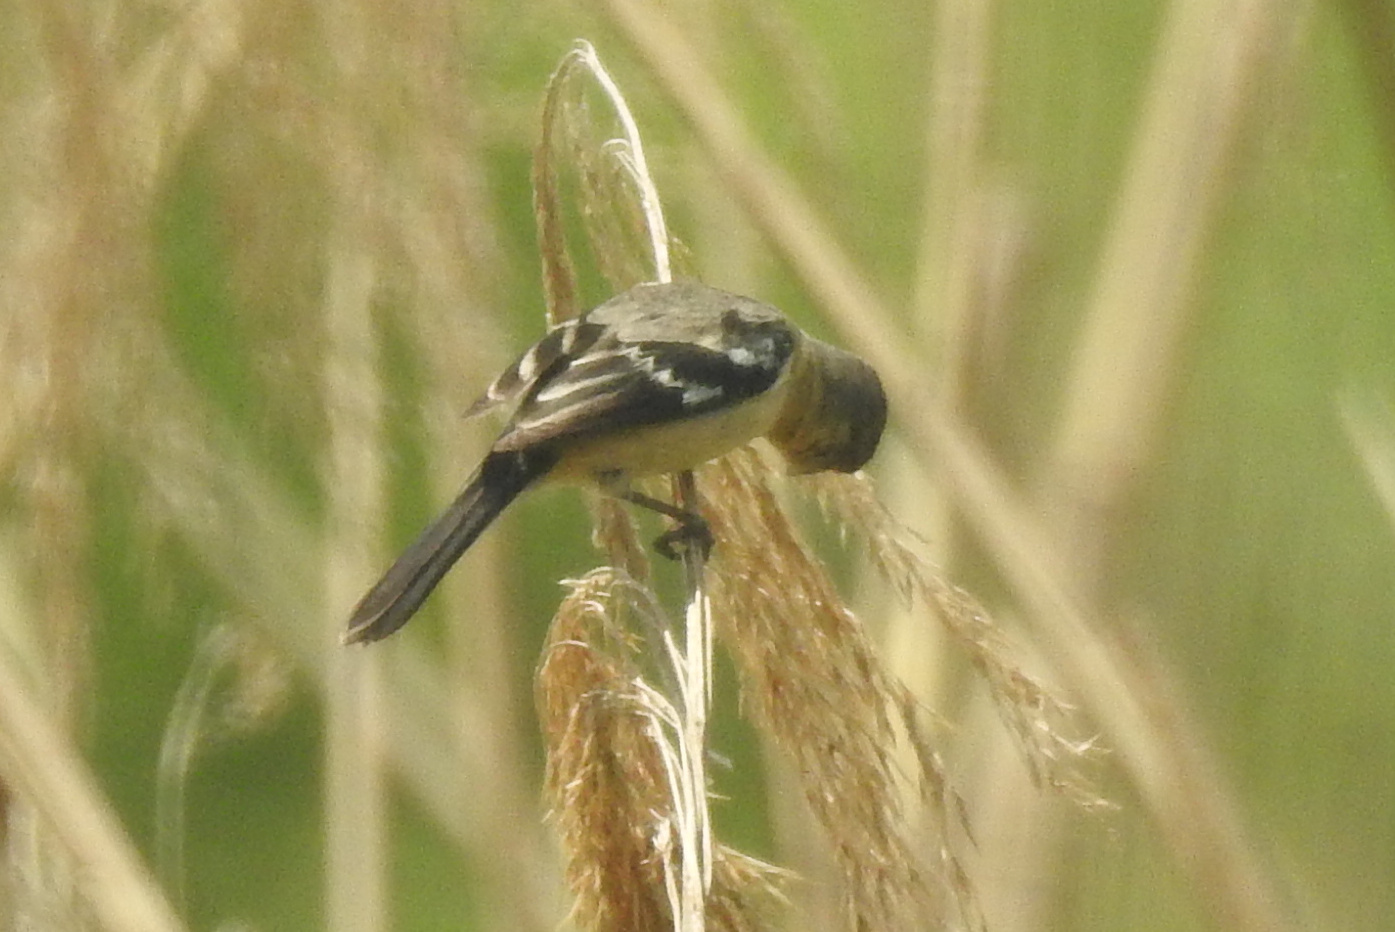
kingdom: Animalia
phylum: Chordata
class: Aves
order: Passeriformes
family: Thraupidae
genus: Sporophila
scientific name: Sporophila morelleti
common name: Morelet's seedeater
